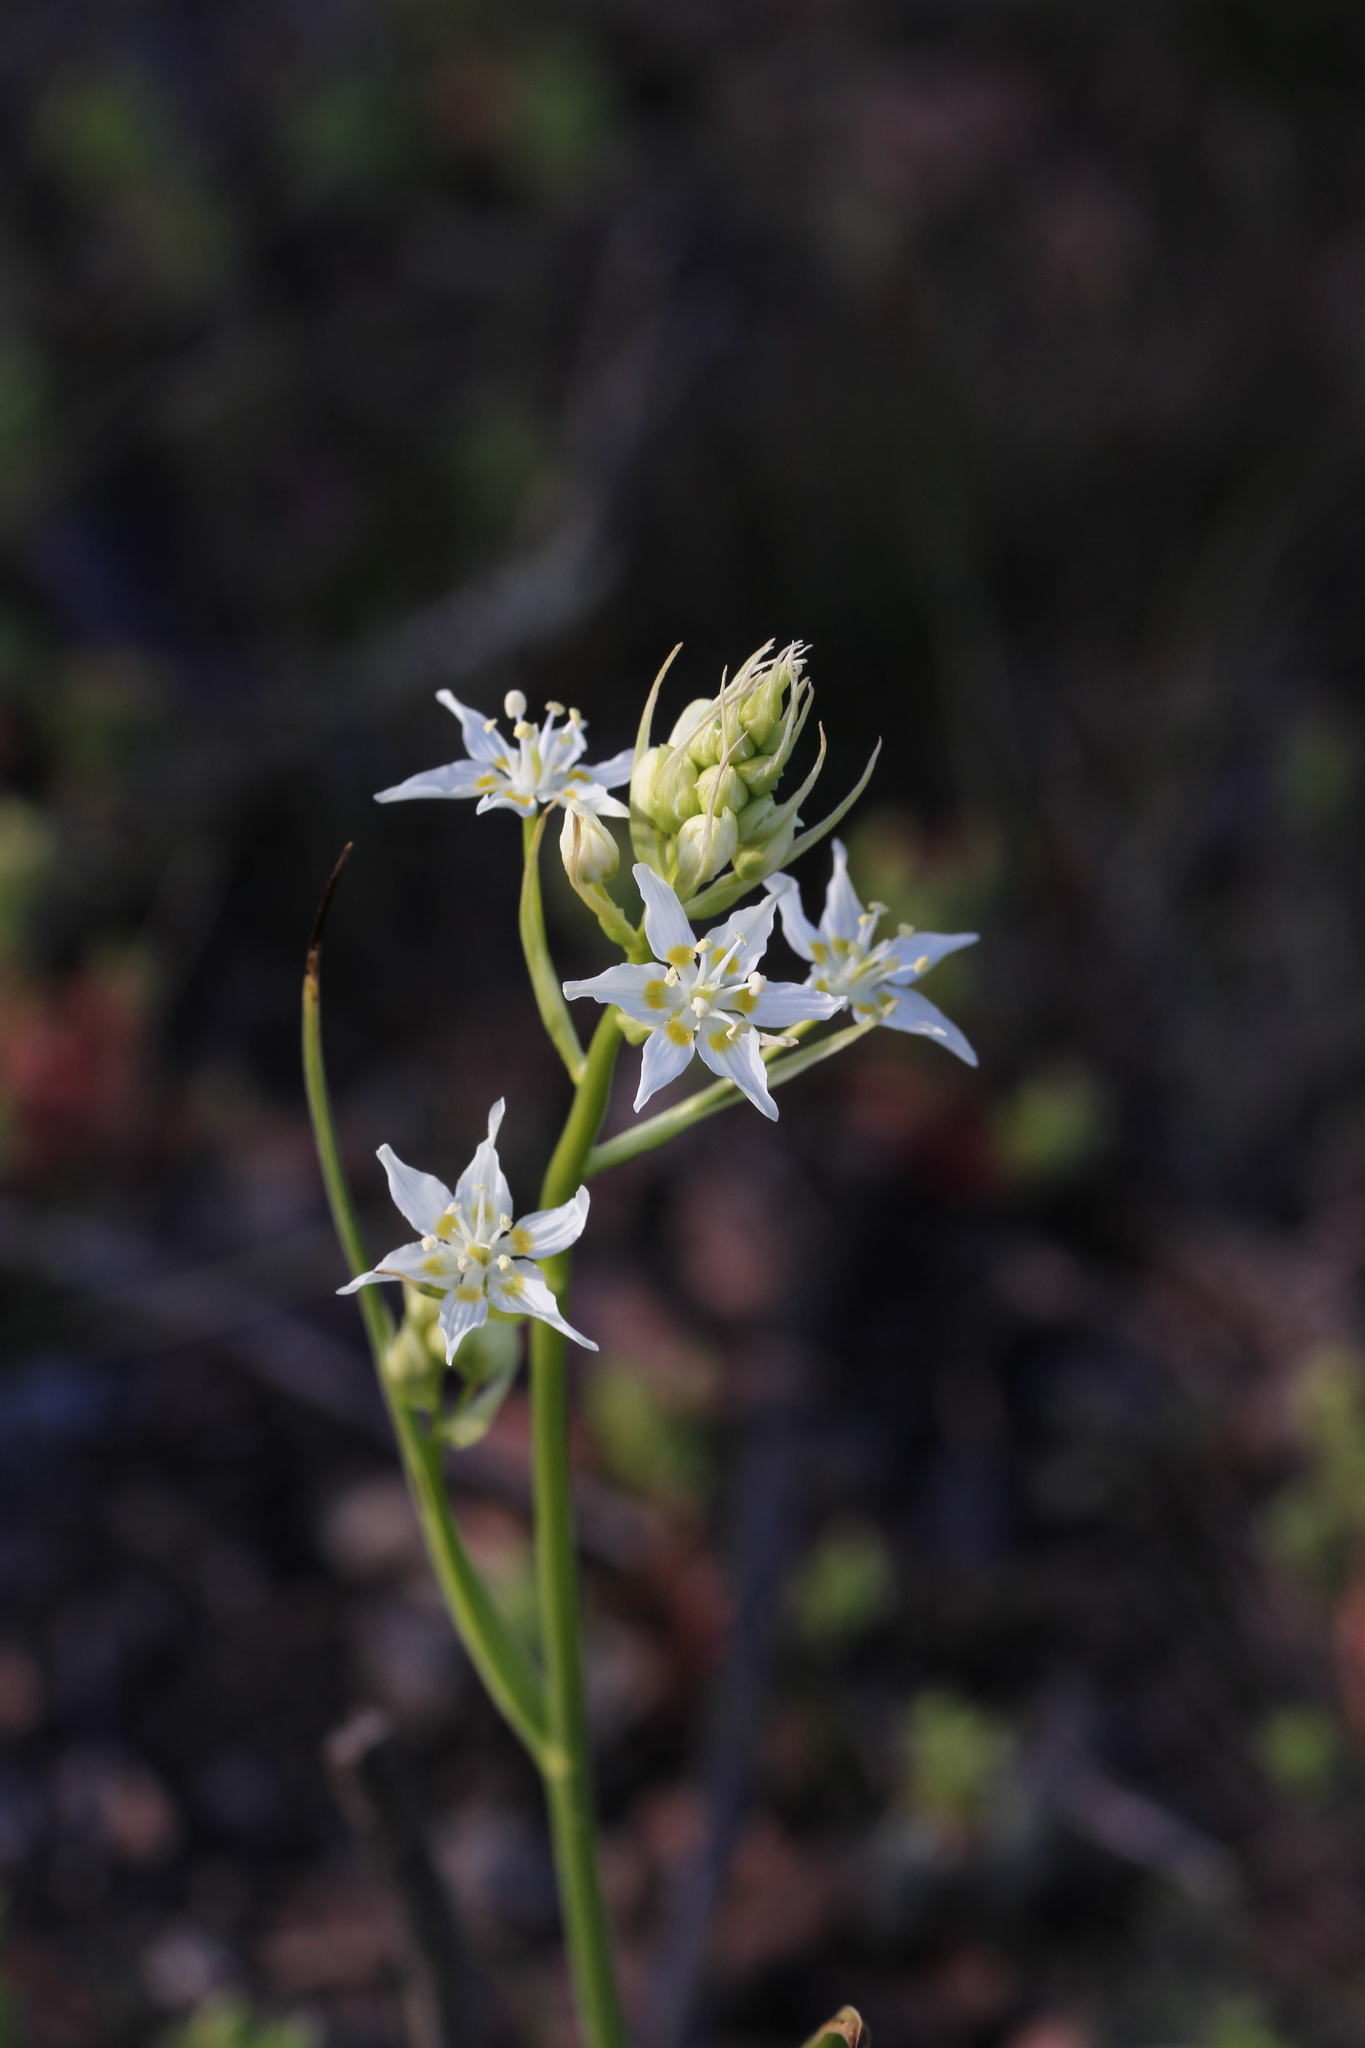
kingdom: Plantae
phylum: Tracheophyta
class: Liliopsida
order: Liliales
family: Melanthiaceae
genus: Toxicoscordion
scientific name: Toxicoscordion fremontii
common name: Fremont's death camas
